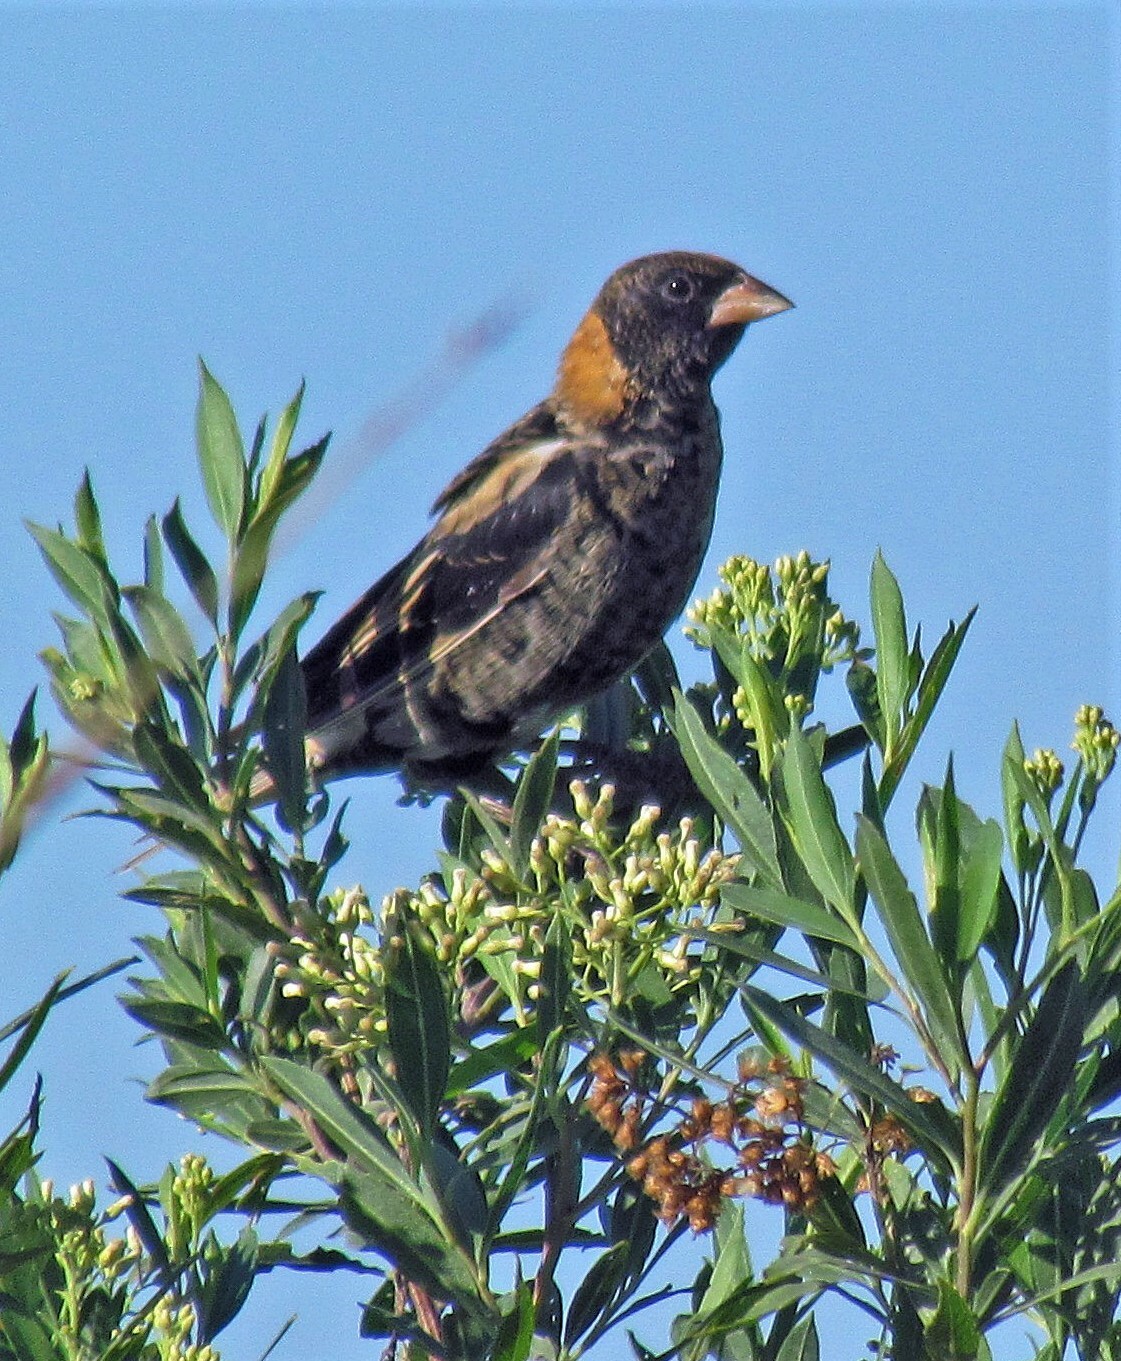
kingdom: Animalia
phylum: Chordata
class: Aves
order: Passeriformes
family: Icteridae
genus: Dolichonyx
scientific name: Dolichonyx oryzivorus
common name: Bobolink
